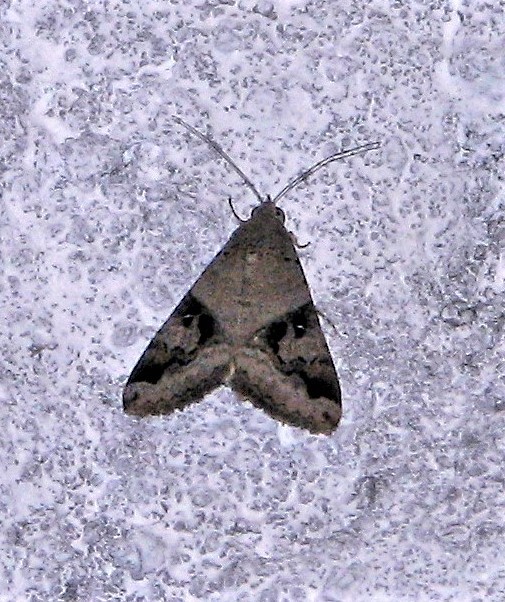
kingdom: Animalia
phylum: Arthropoda
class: Insecta
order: Lepidoptera
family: Erebidae
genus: Melipotis
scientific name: Melipotis ochrodes
